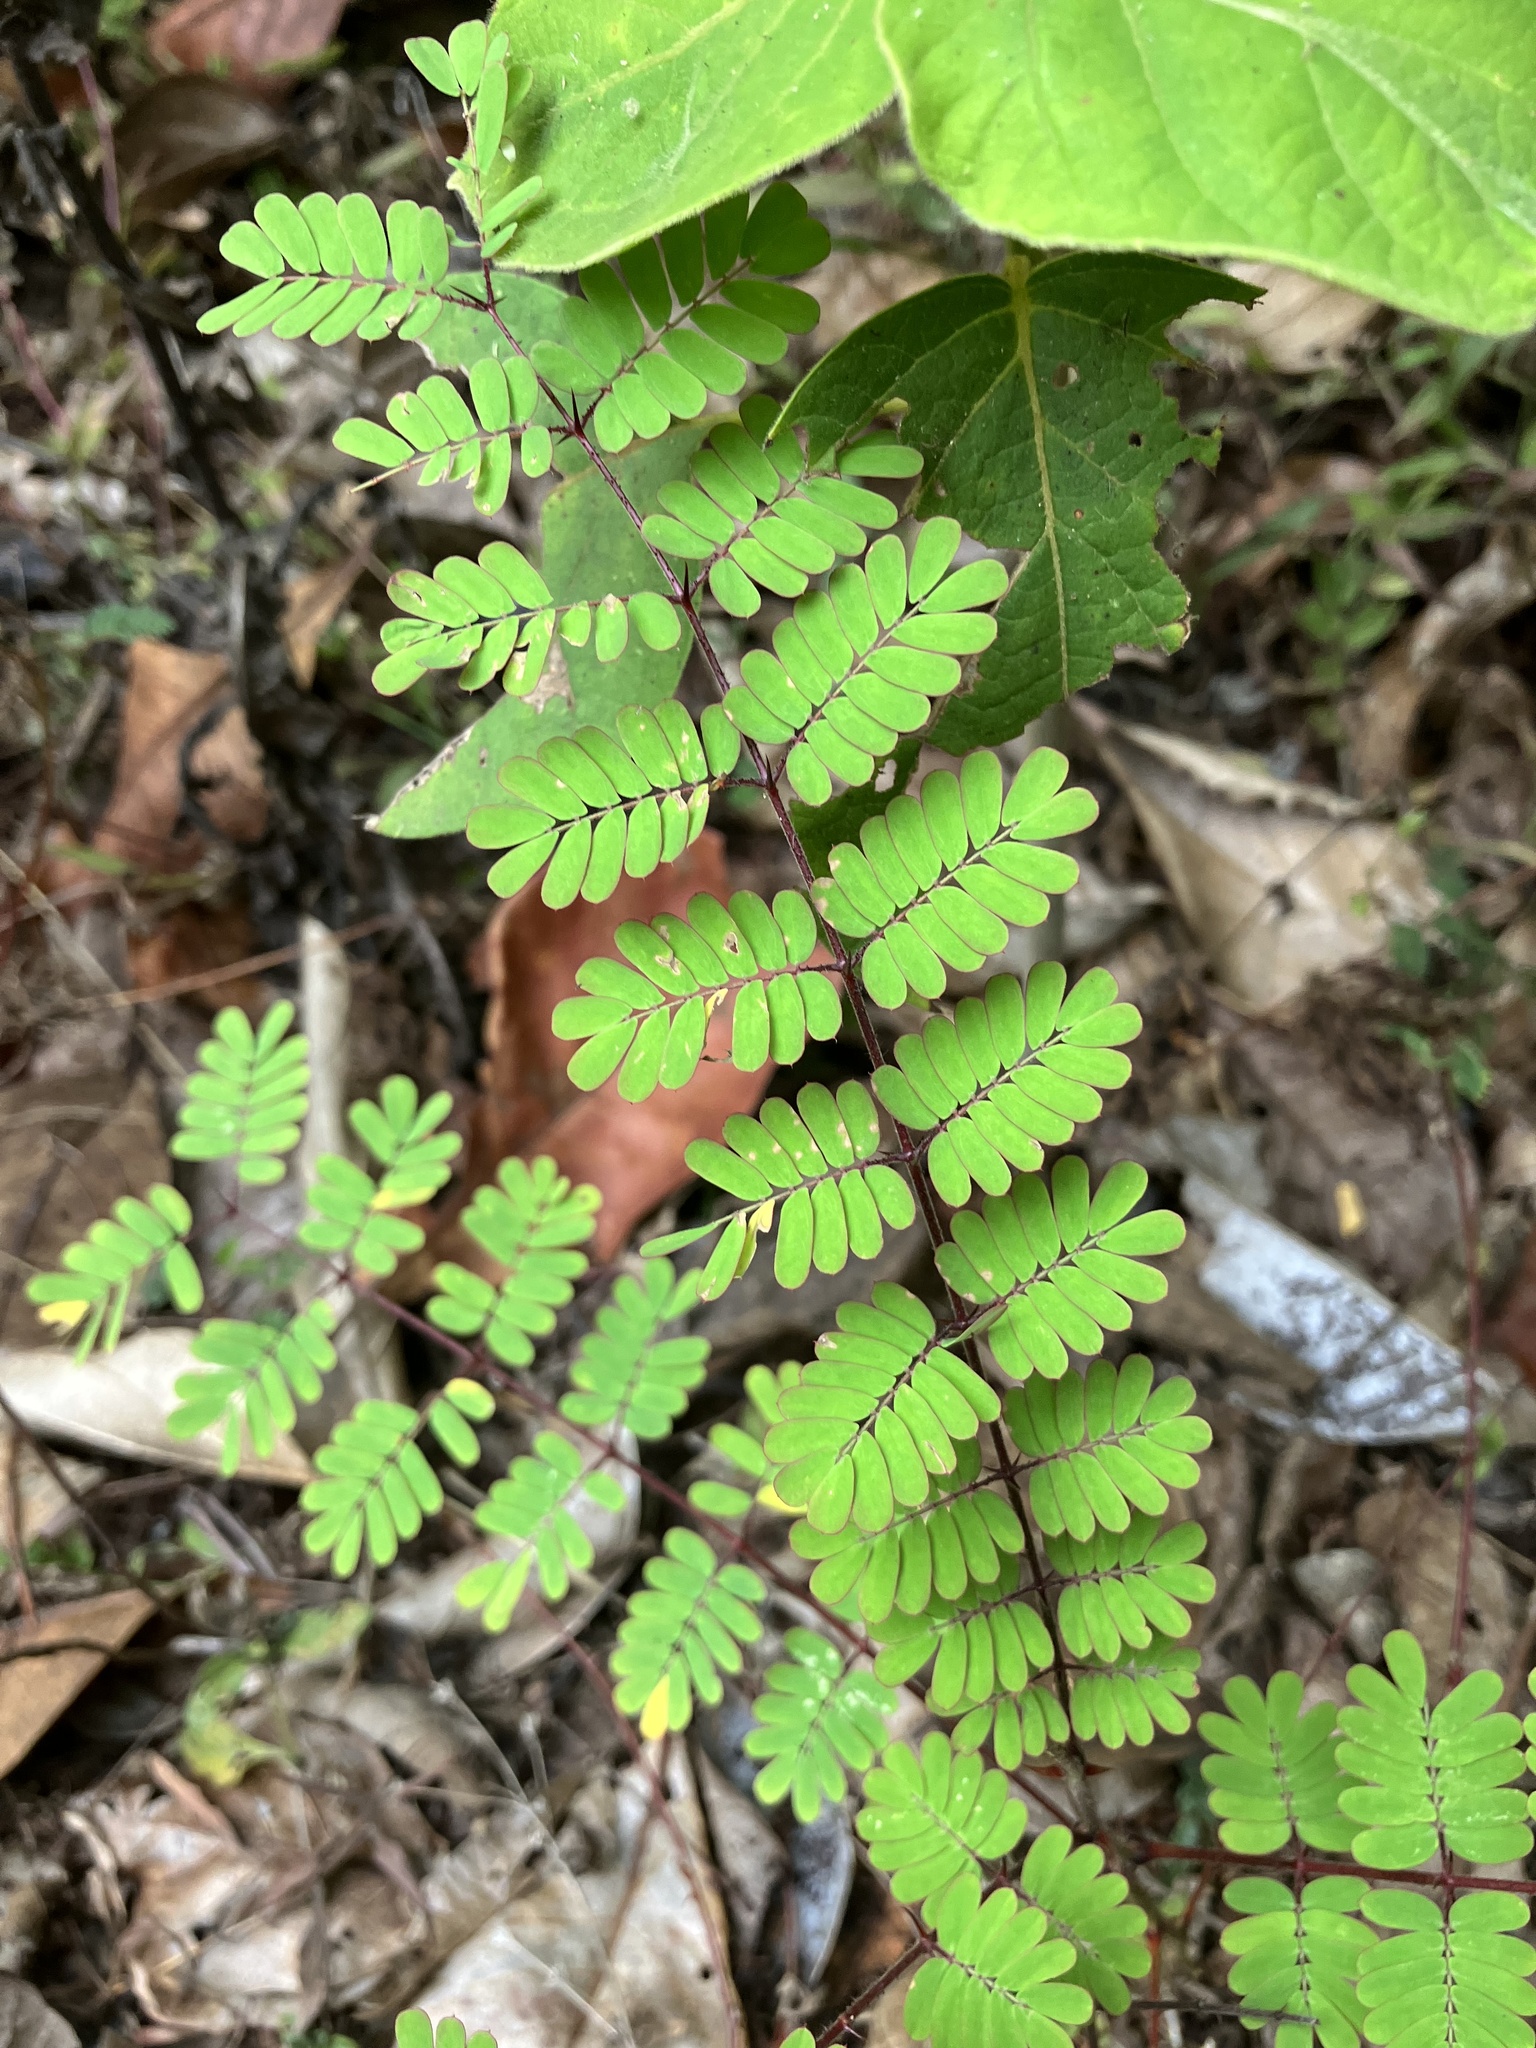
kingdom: Plantae
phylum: Tracheophyta
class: Magnoliopsida
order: Fabales
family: Fabaceae
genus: Hultholia
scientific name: Hultholia mimosoides
